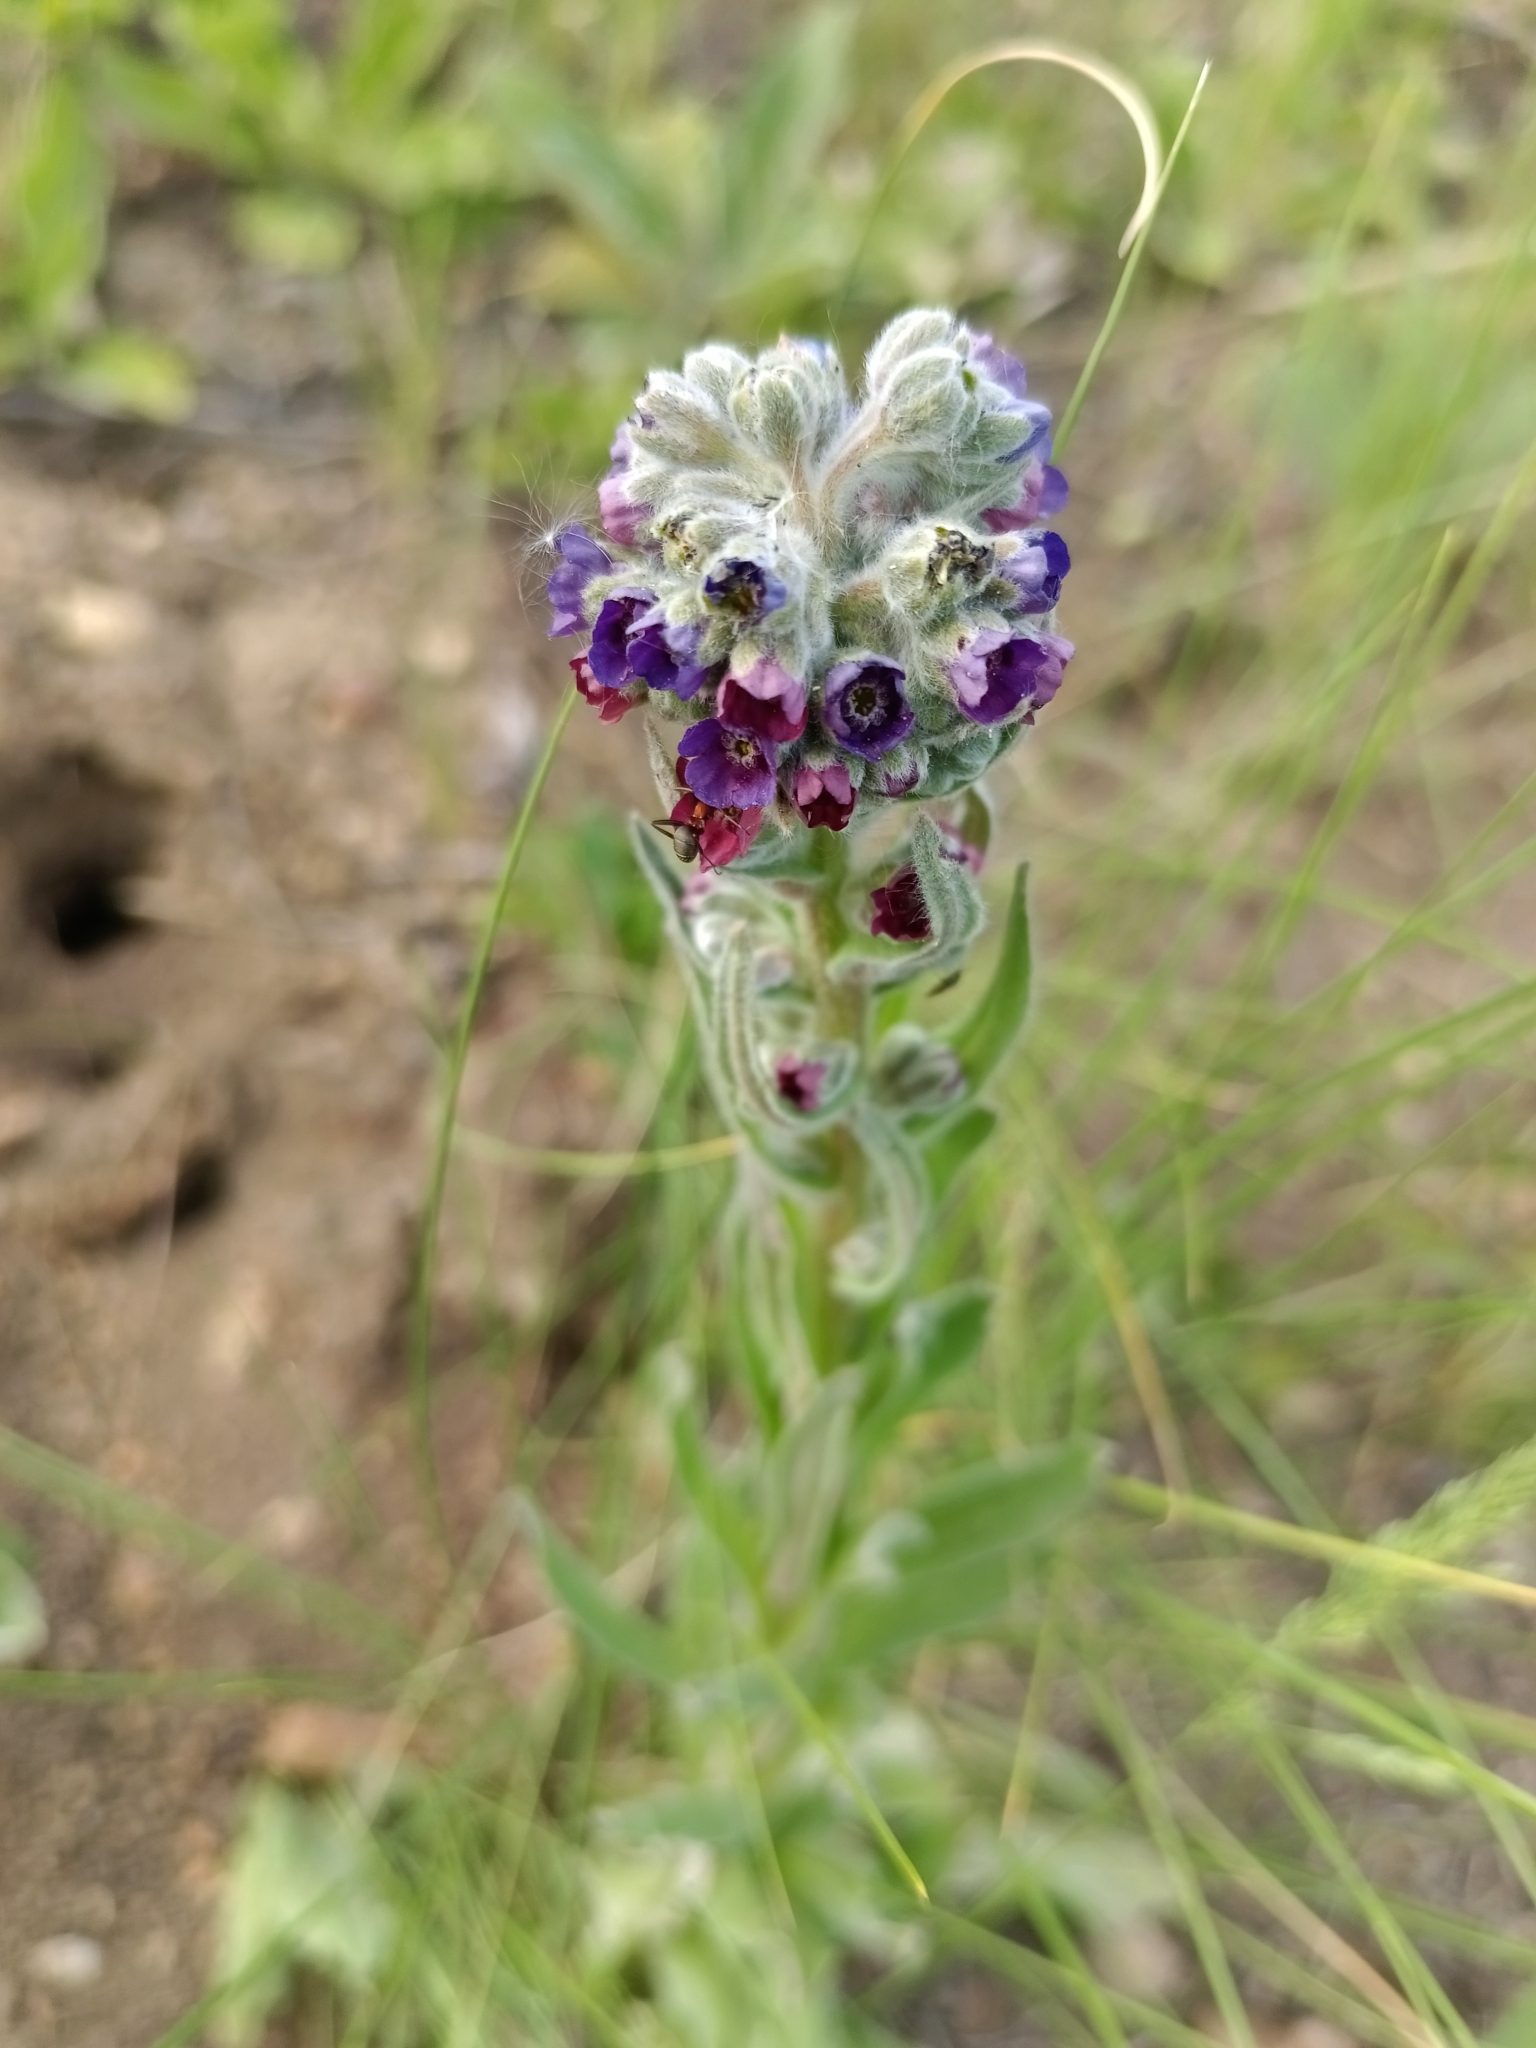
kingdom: Plantae
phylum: Tracheophyta
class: Magnoliopsida
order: Boraginales
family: Boraginaceae
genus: Cynoglossum
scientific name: Cynoglossum officinale
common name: Hound's-tongue
